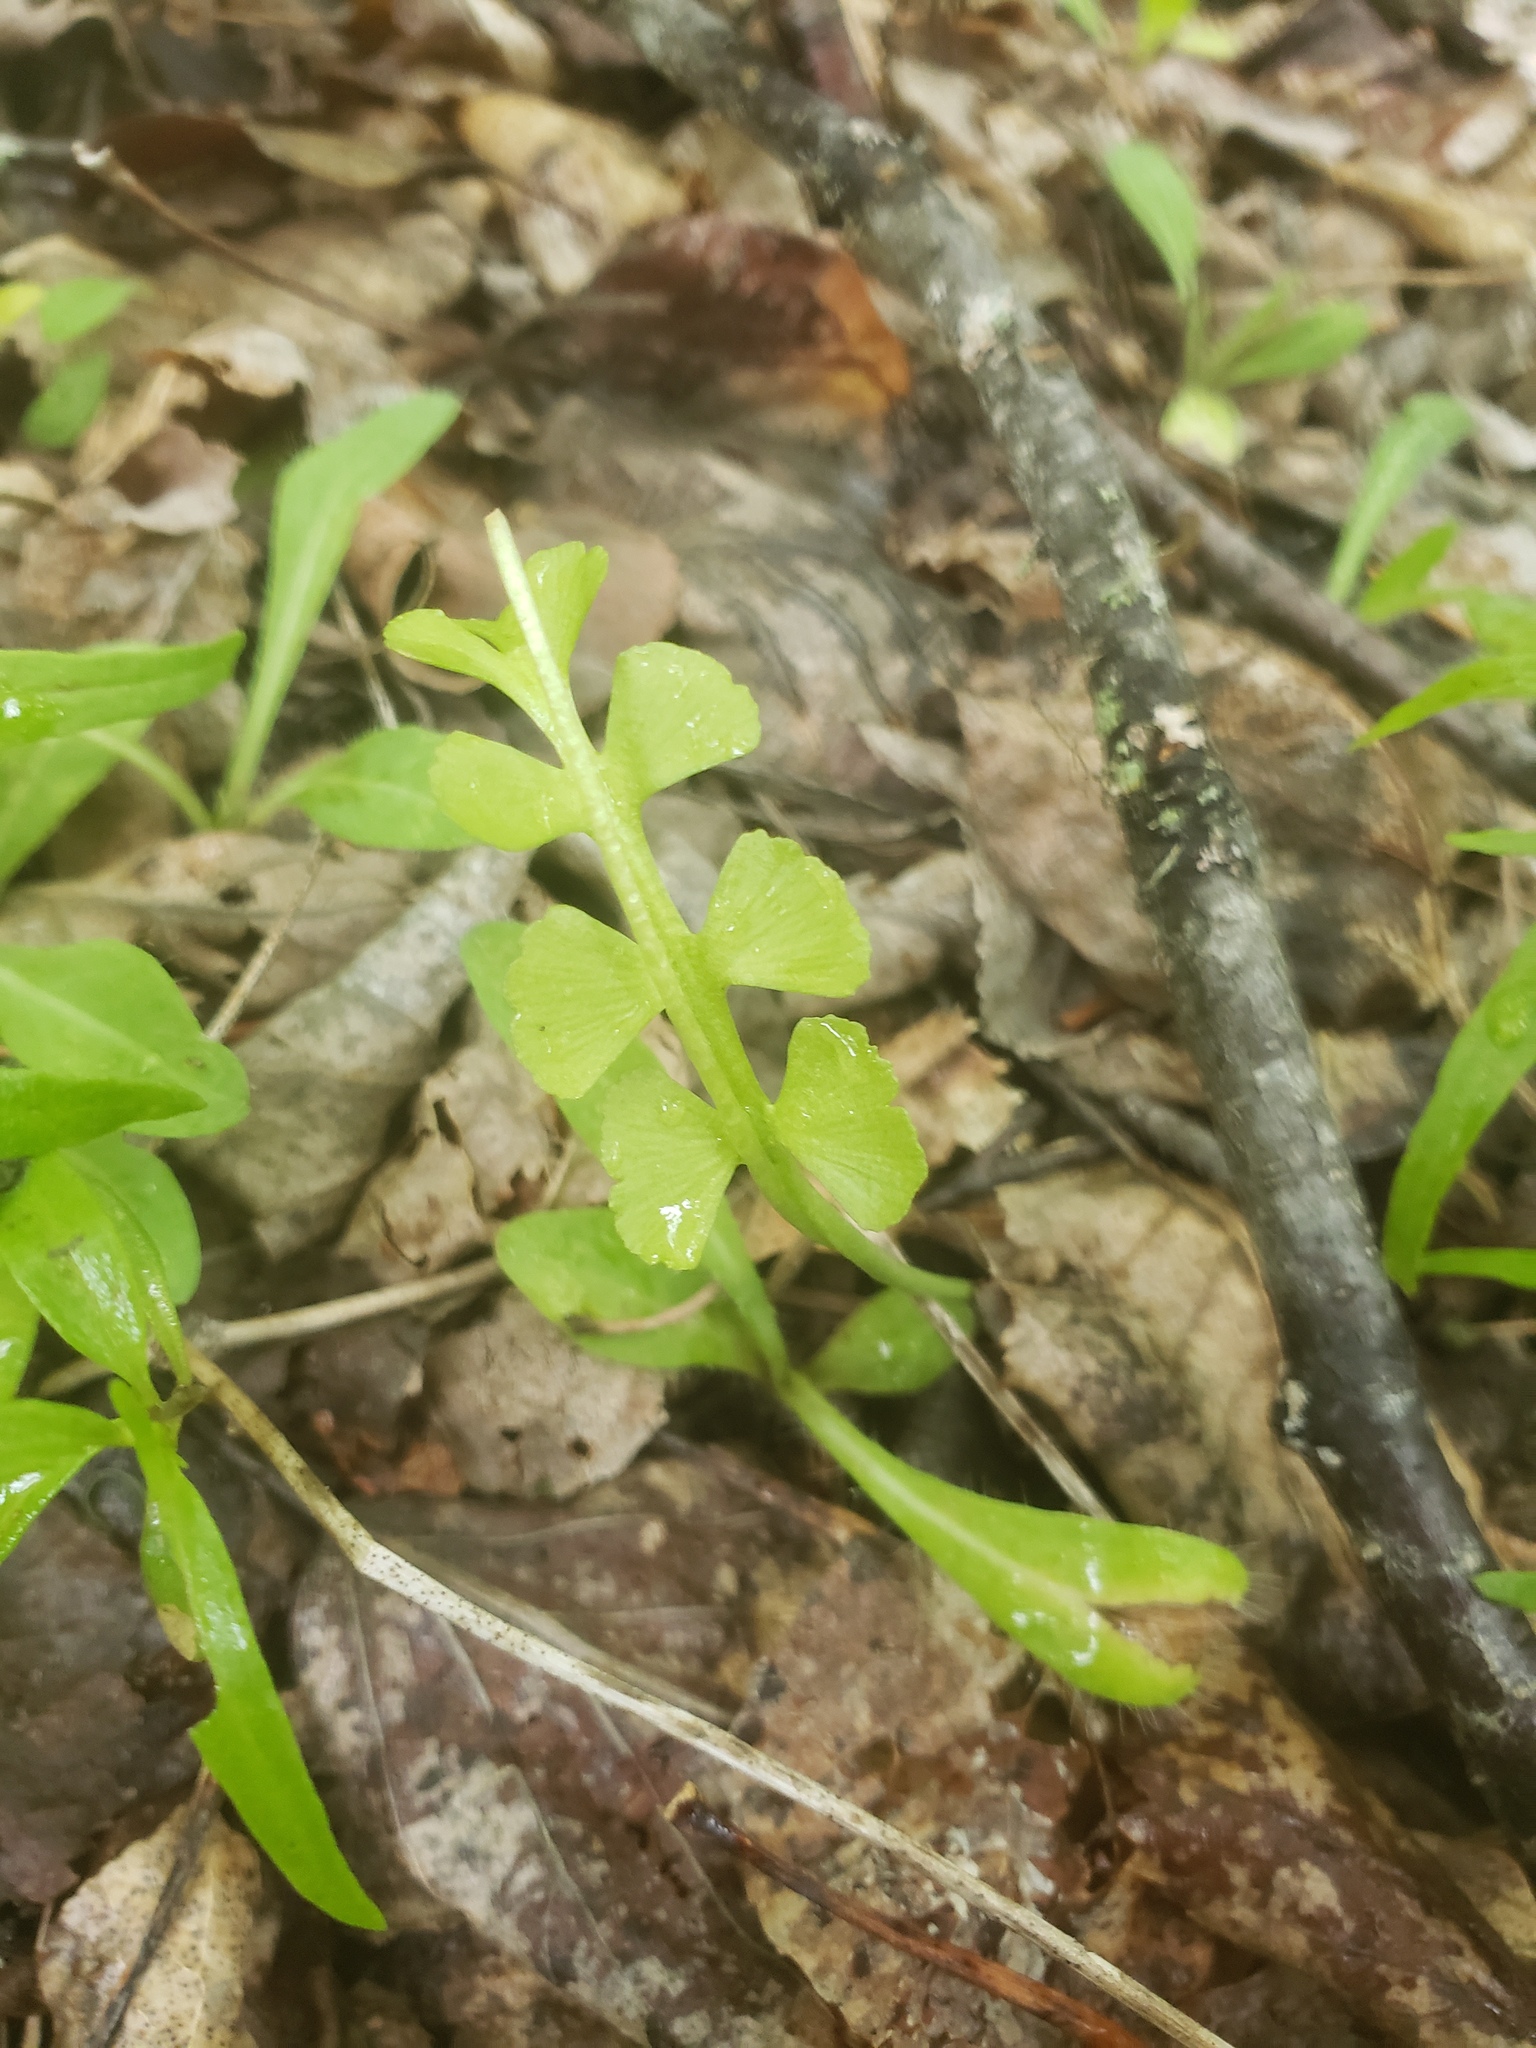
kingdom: Plantae
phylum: Tracheophyta
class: Polypodiopsida
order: Ophioglossales
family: Ophioglossaceae
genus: Botrychium
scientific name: Botrychium minganense
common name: Mingan grapefern
